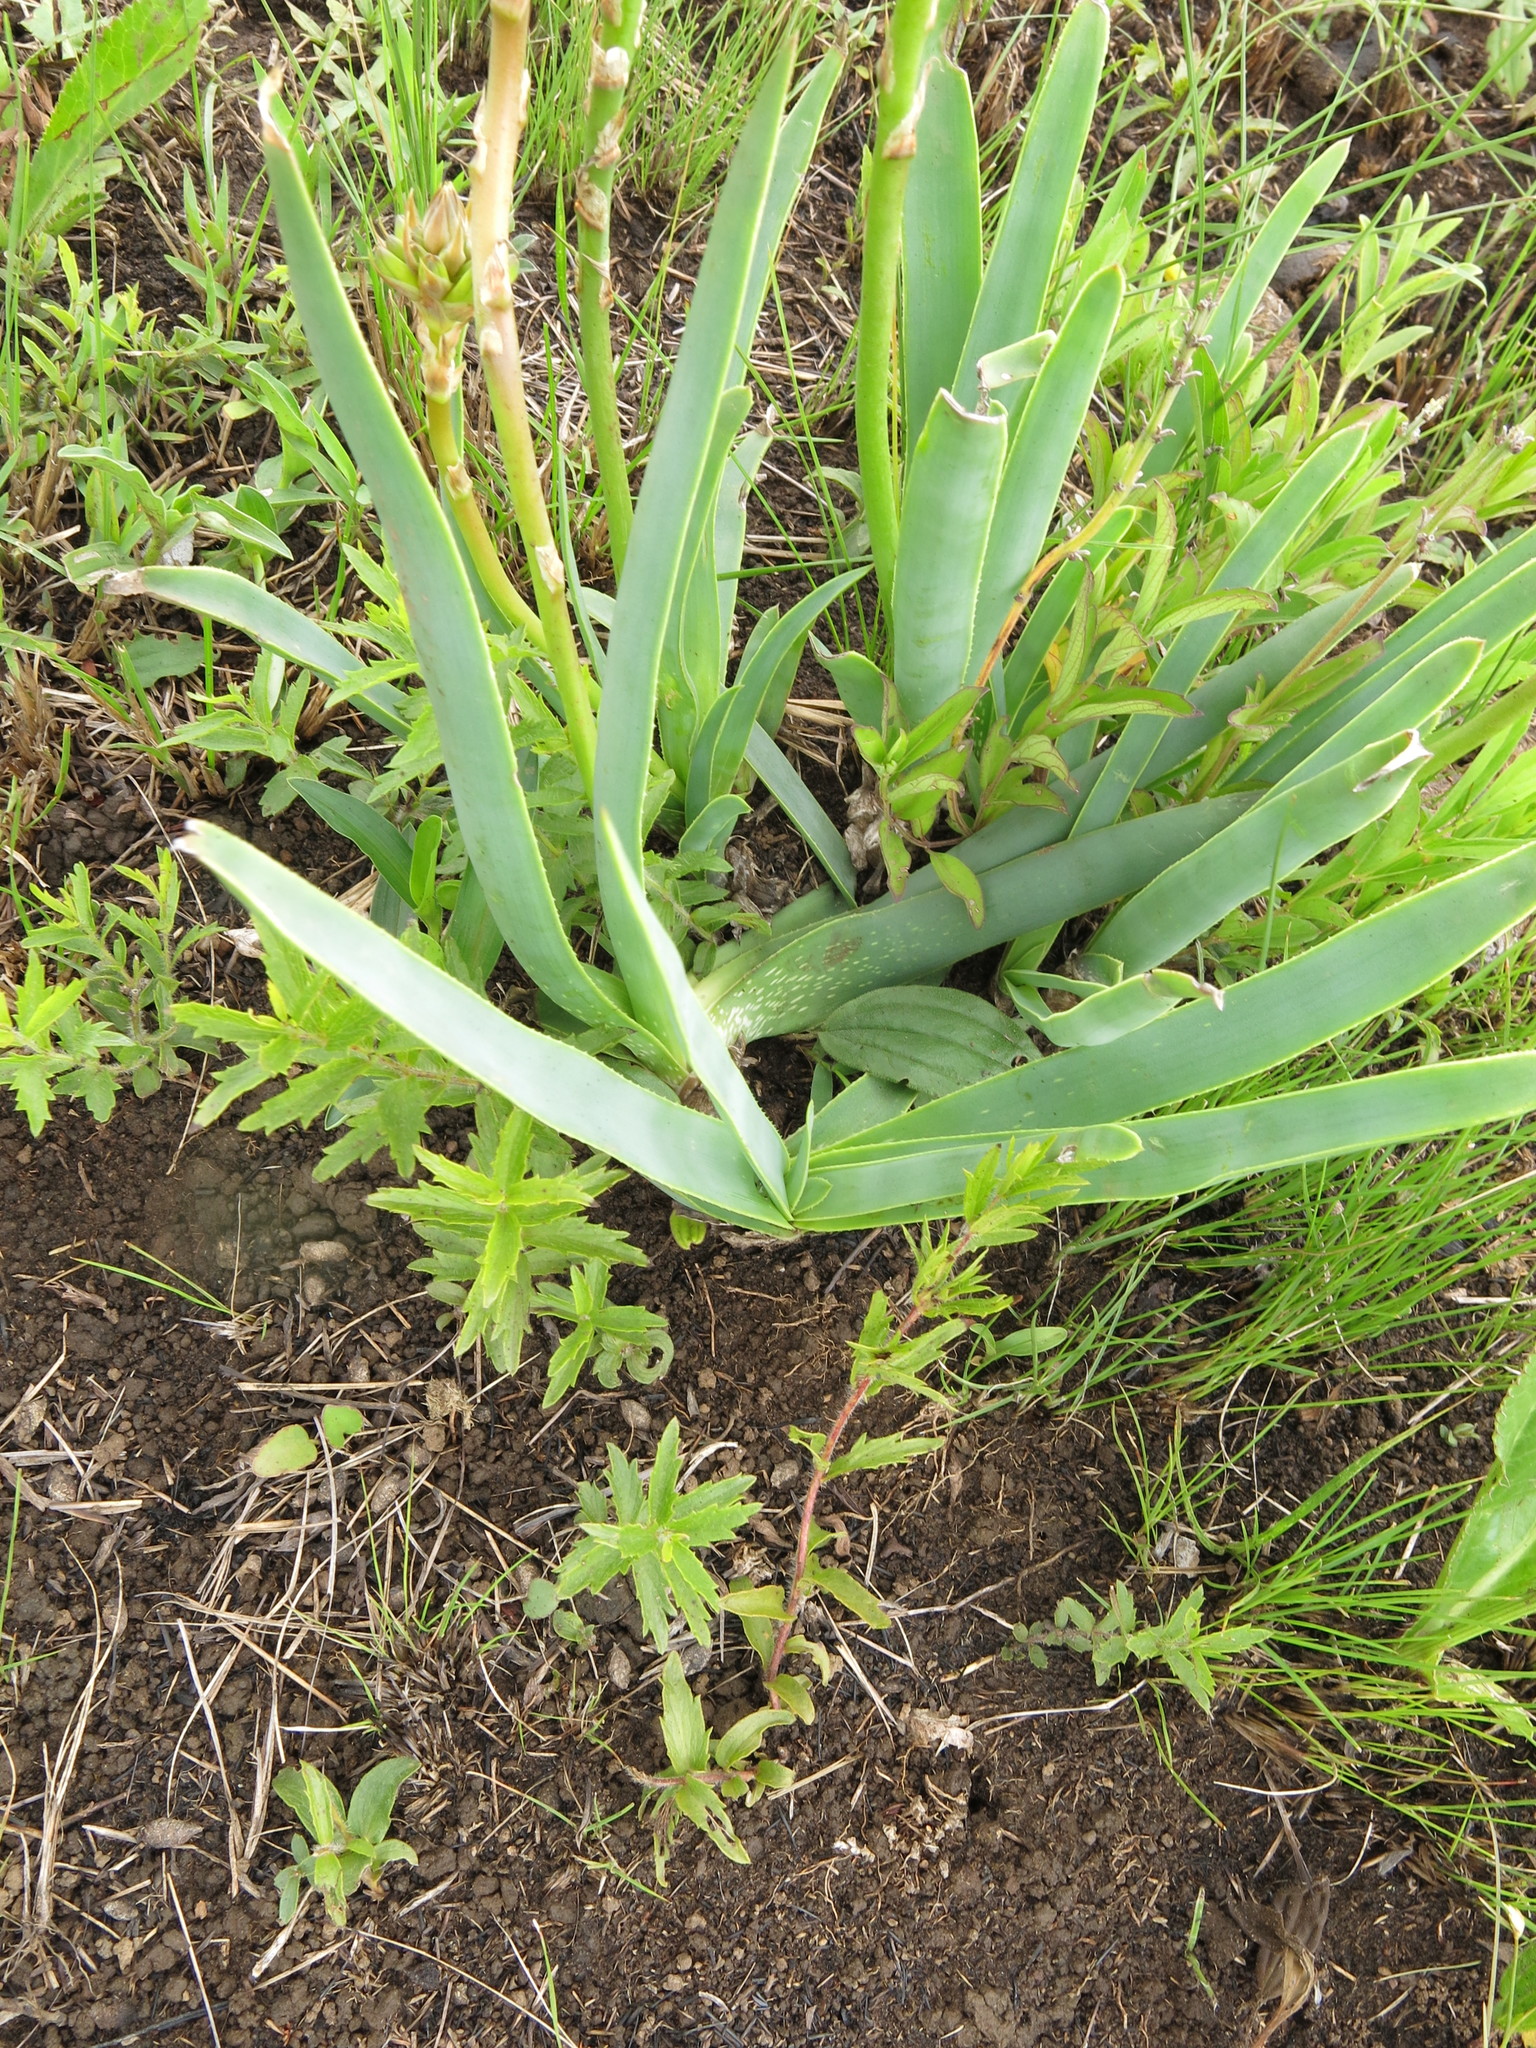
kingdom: Plantae
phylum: Tracheophyta
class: Liliopsida
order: Asparagales
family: Asphodelaceae
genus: Aloe
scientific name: Aloe ecklonis
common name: Ecklon's aloe
